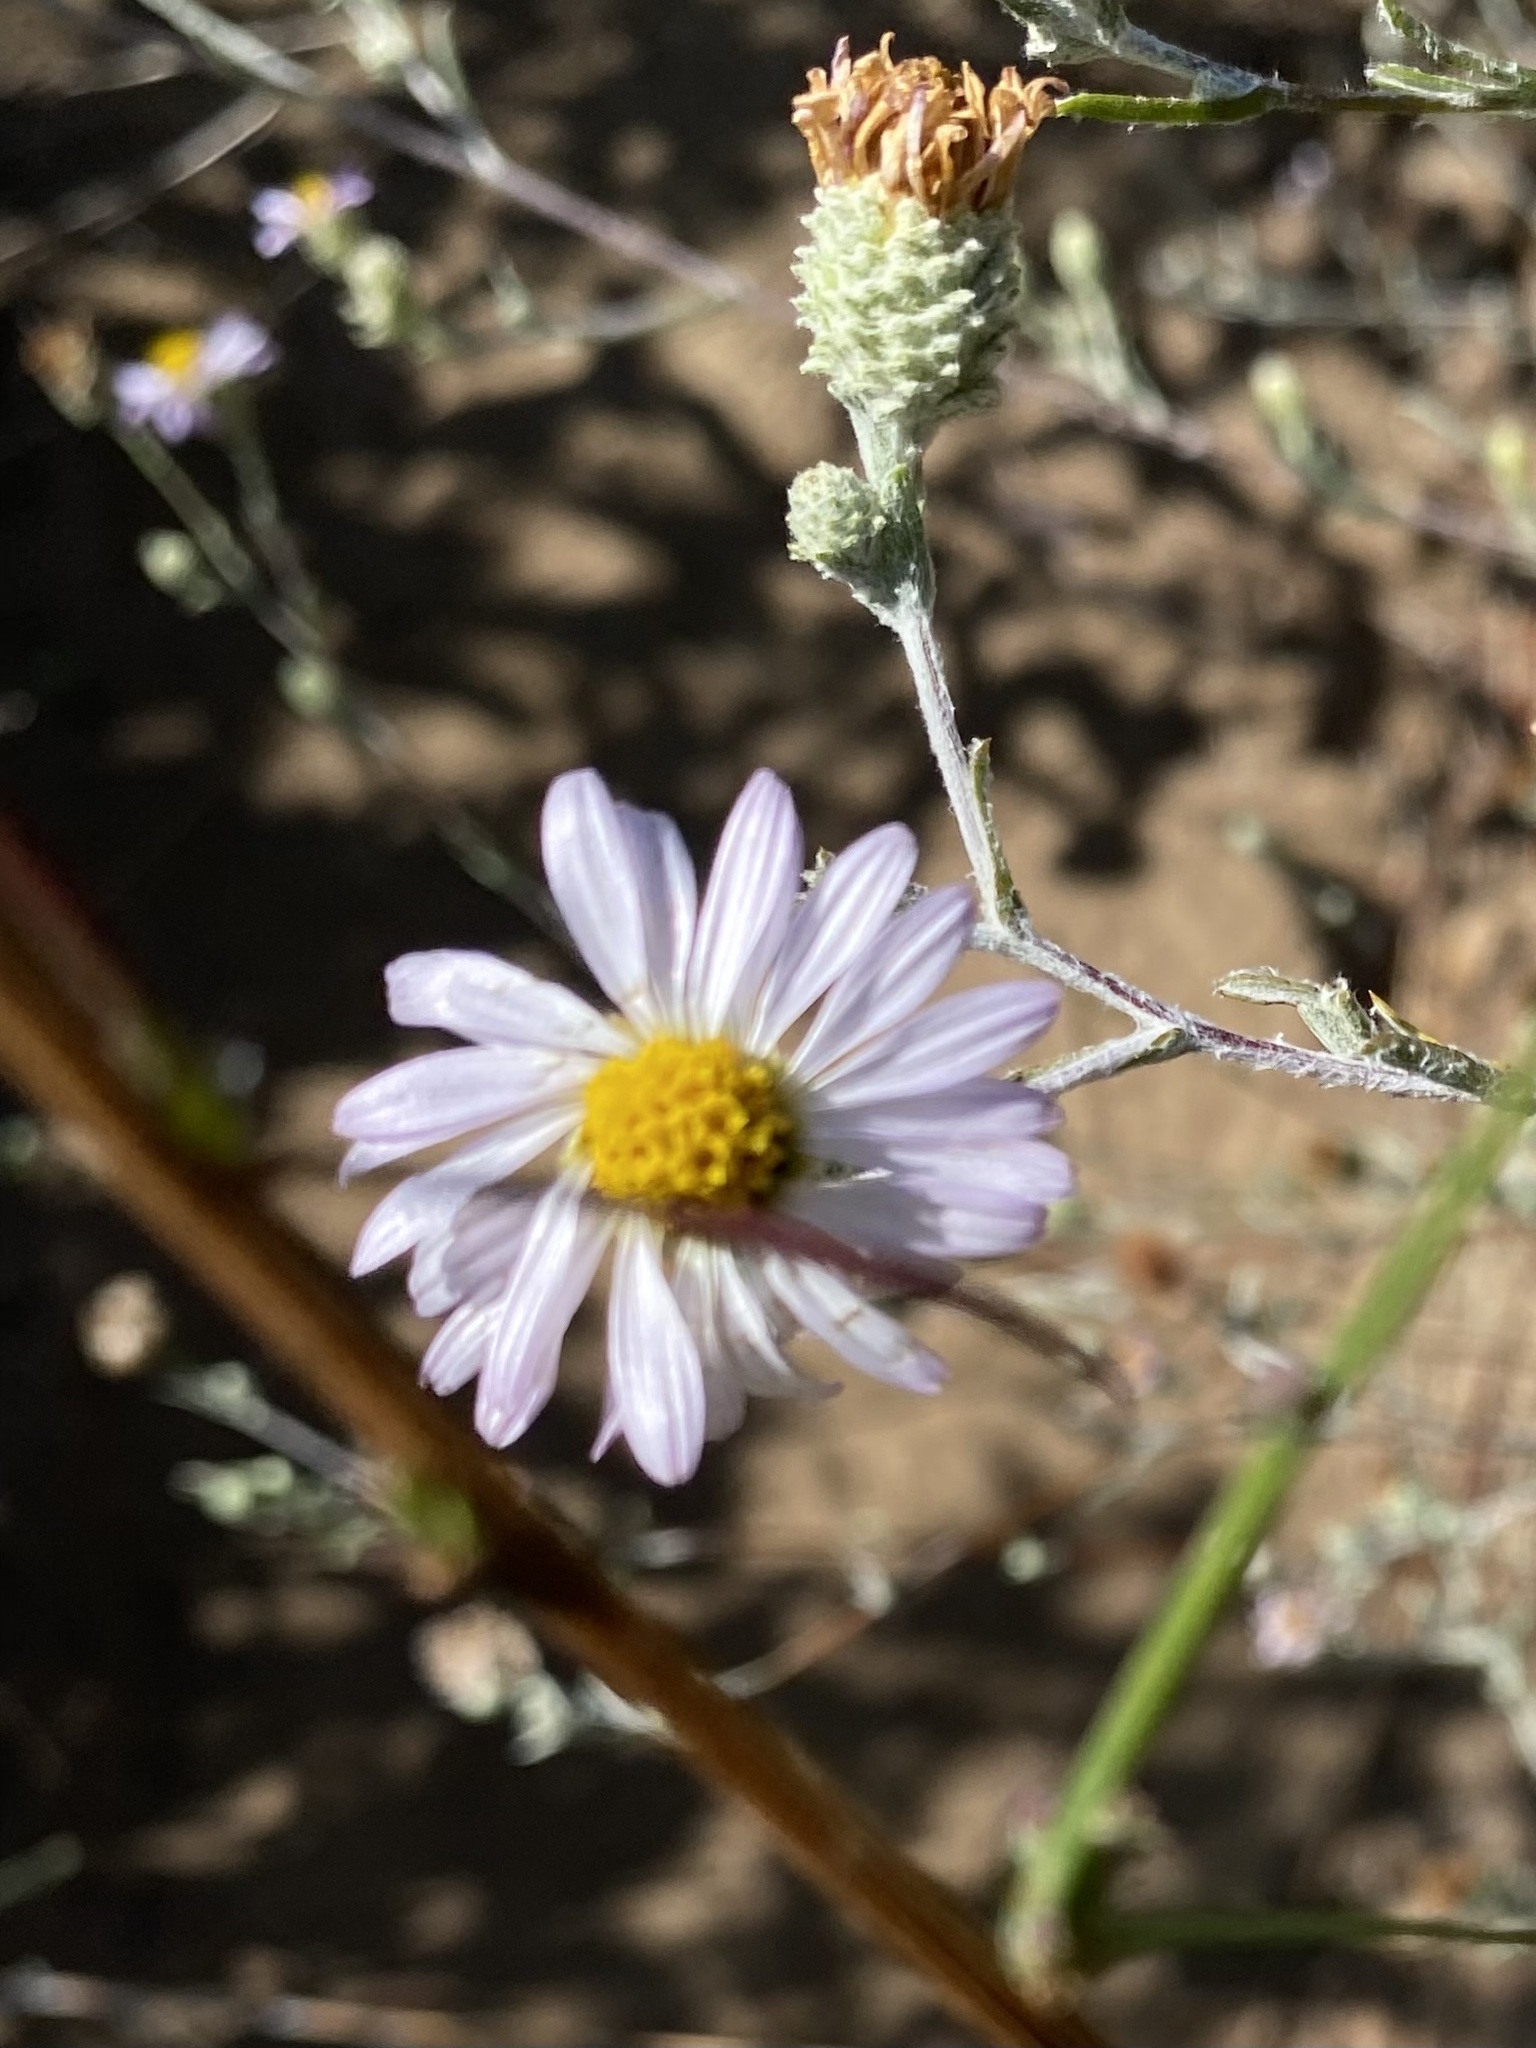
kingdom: Plantae
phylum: Tracheophyta
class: Magnoliopsida
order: Asterales
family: Asteraceae
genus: Corethrogyne
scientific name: Corethrogyne filaginifolia
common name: Sand-aster
